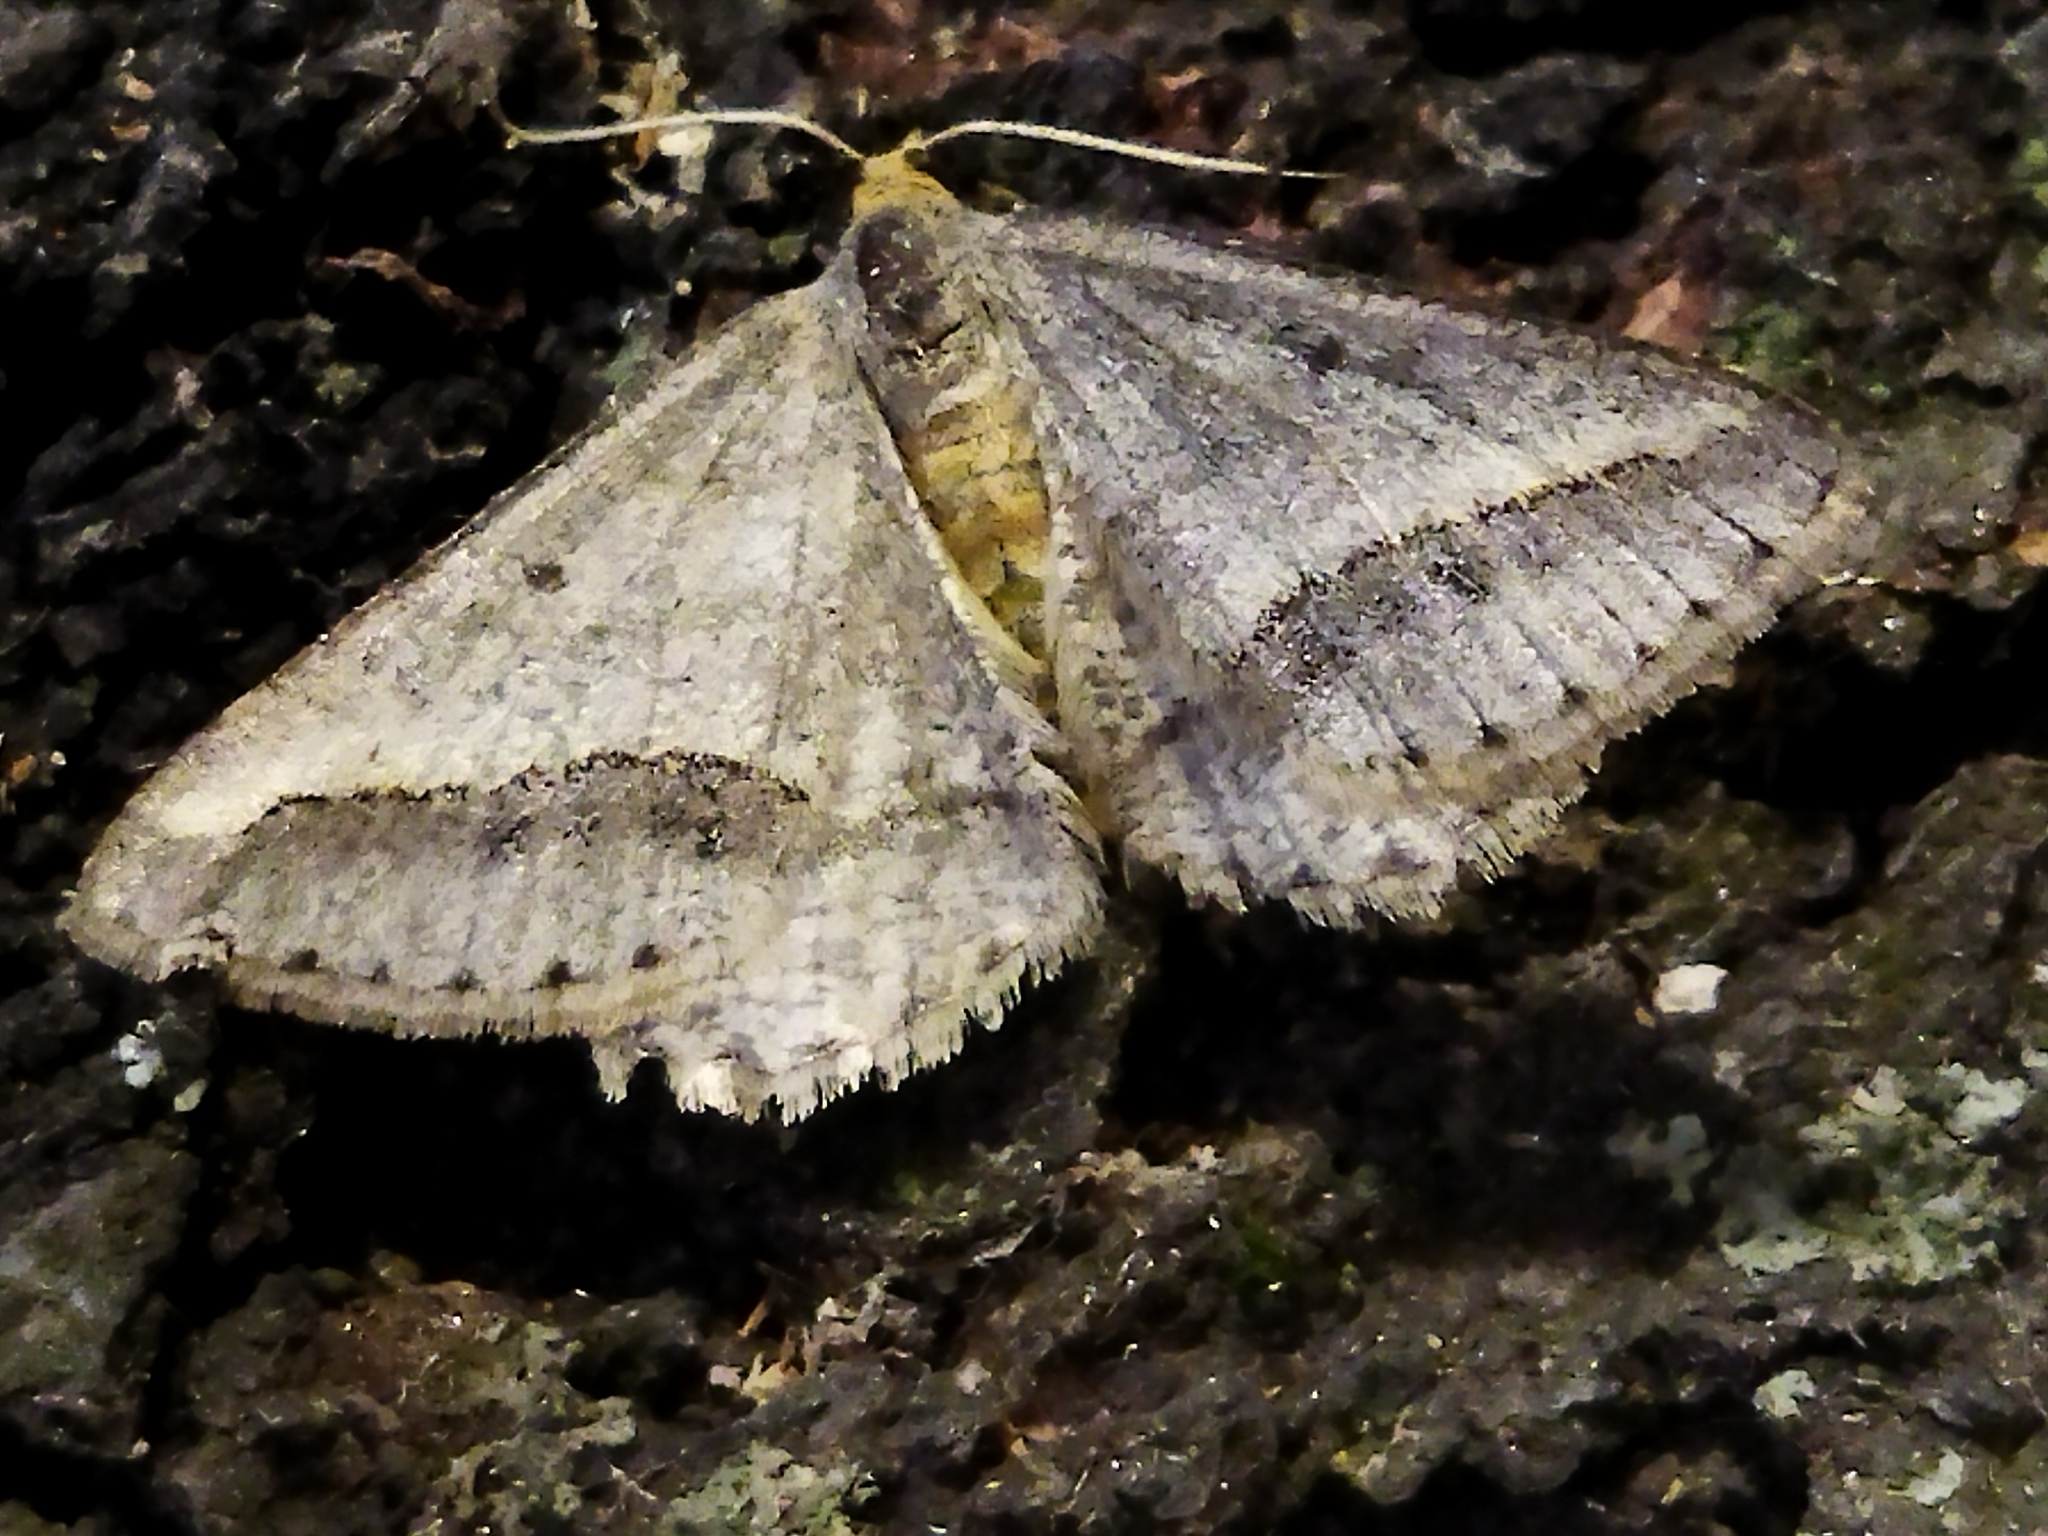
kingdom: Animalia
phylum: Arthropoda
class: Insecta
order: Lepidoptera
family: Geometridae
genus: Tephrina
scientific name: Tephrina arenacearia
